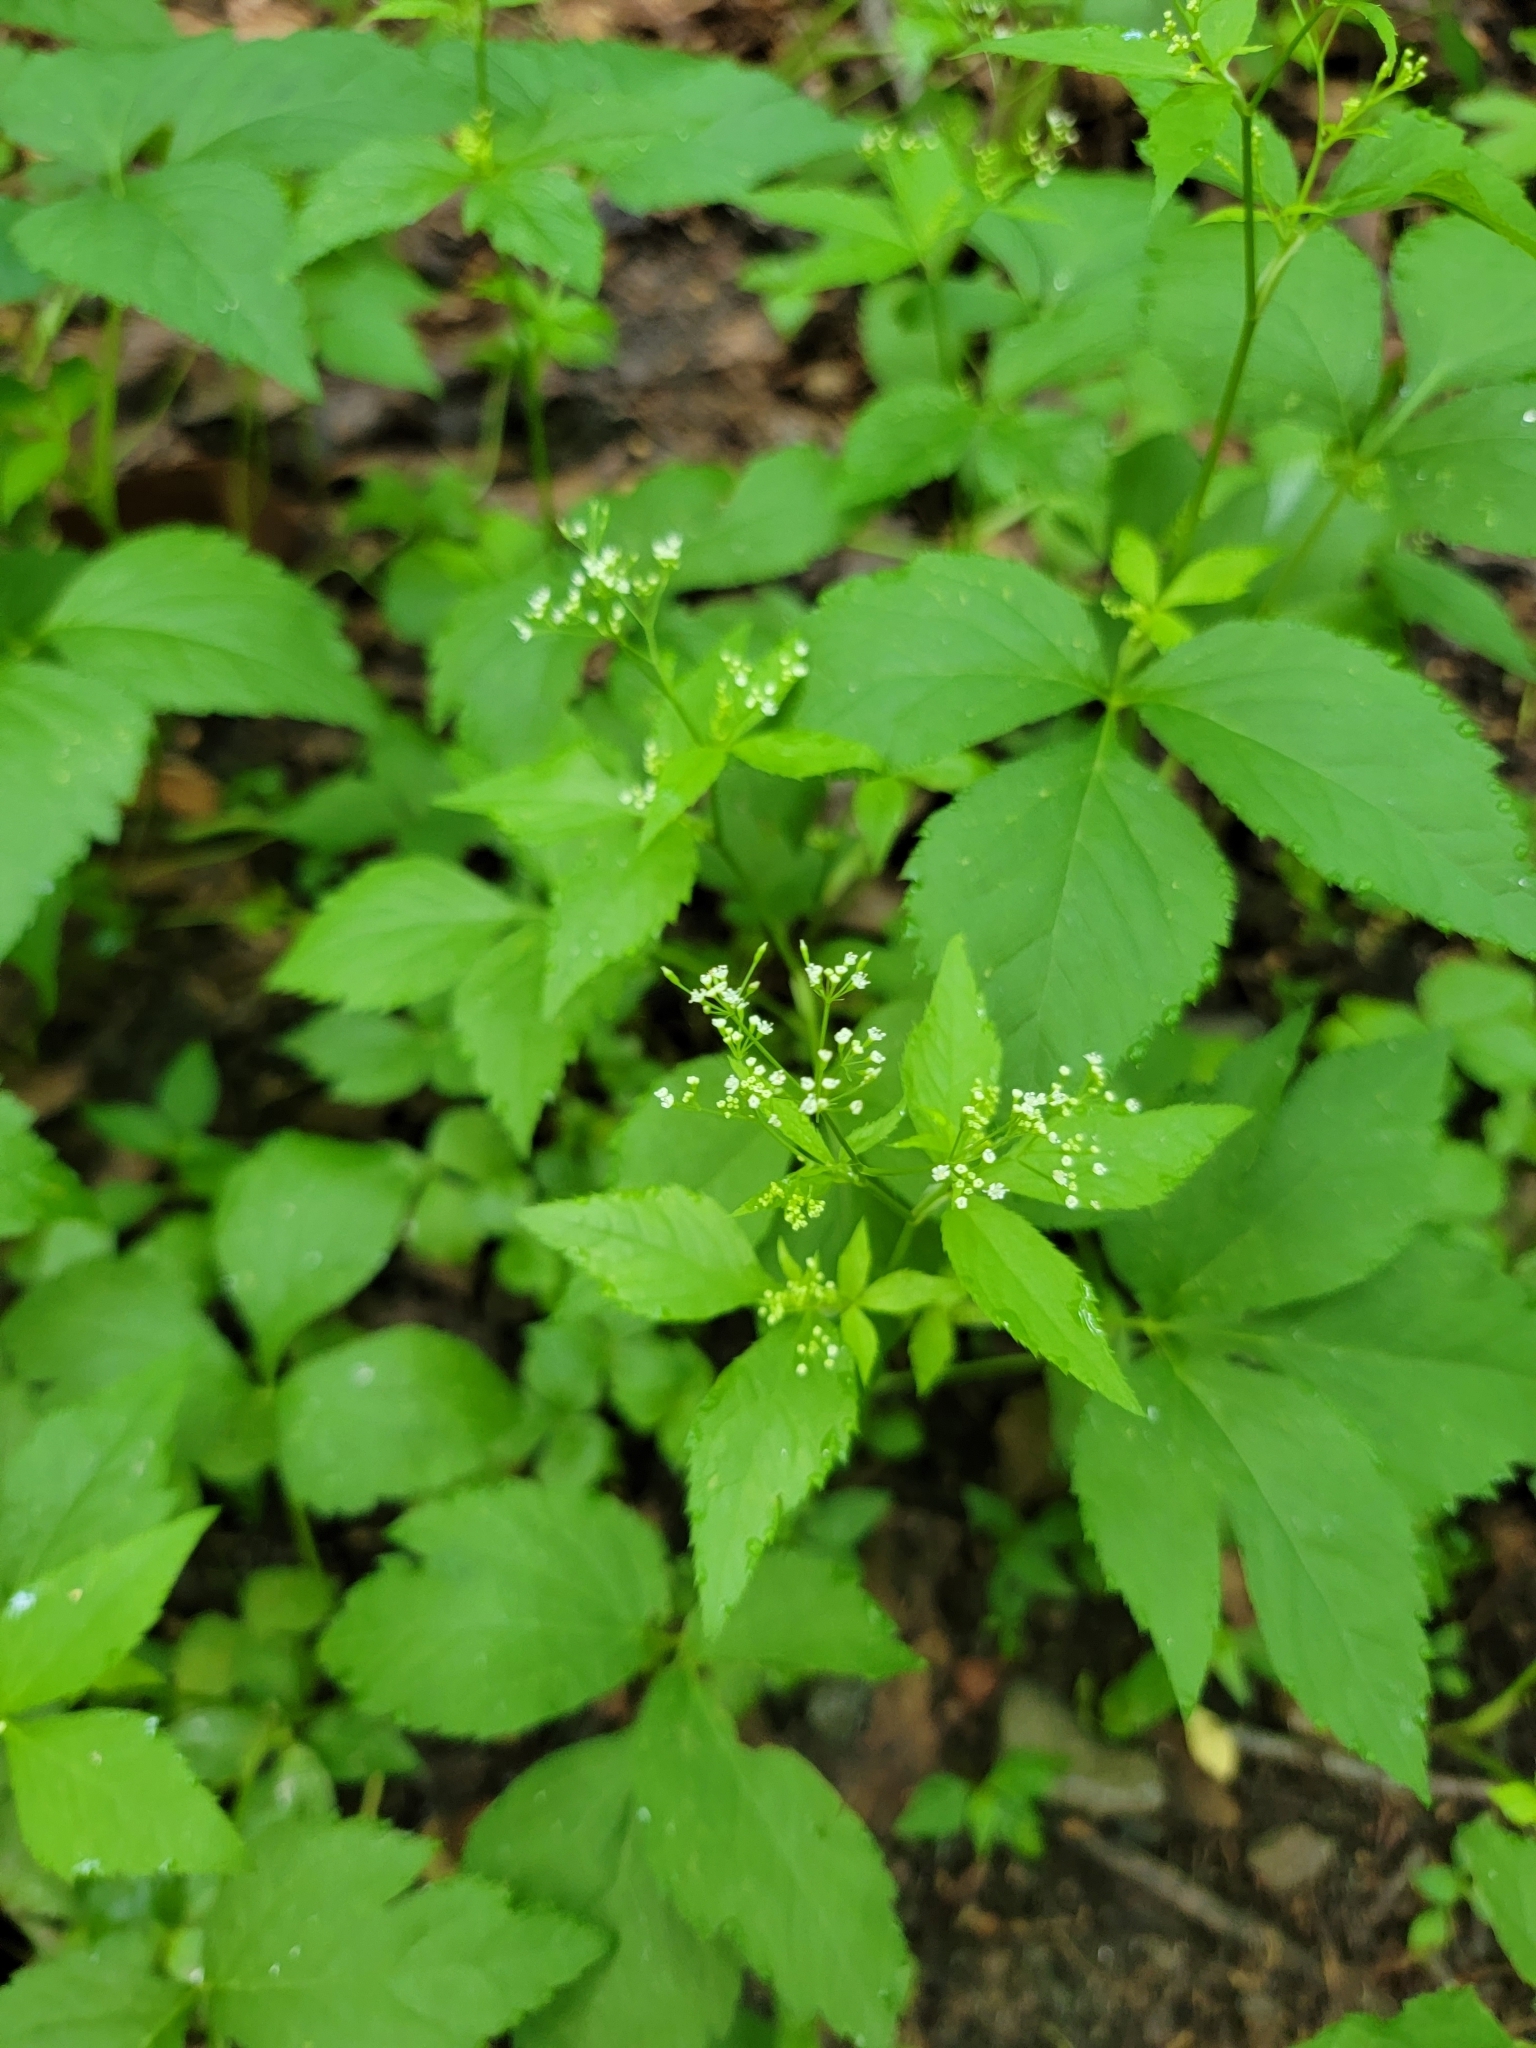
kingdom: Plantae
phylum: Tracheophyta
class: Magnoliopsida
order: Apiales
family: Apiaceae
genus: Cryptotaenia
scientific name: Cryptotaenia canadensis
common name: Honewort
